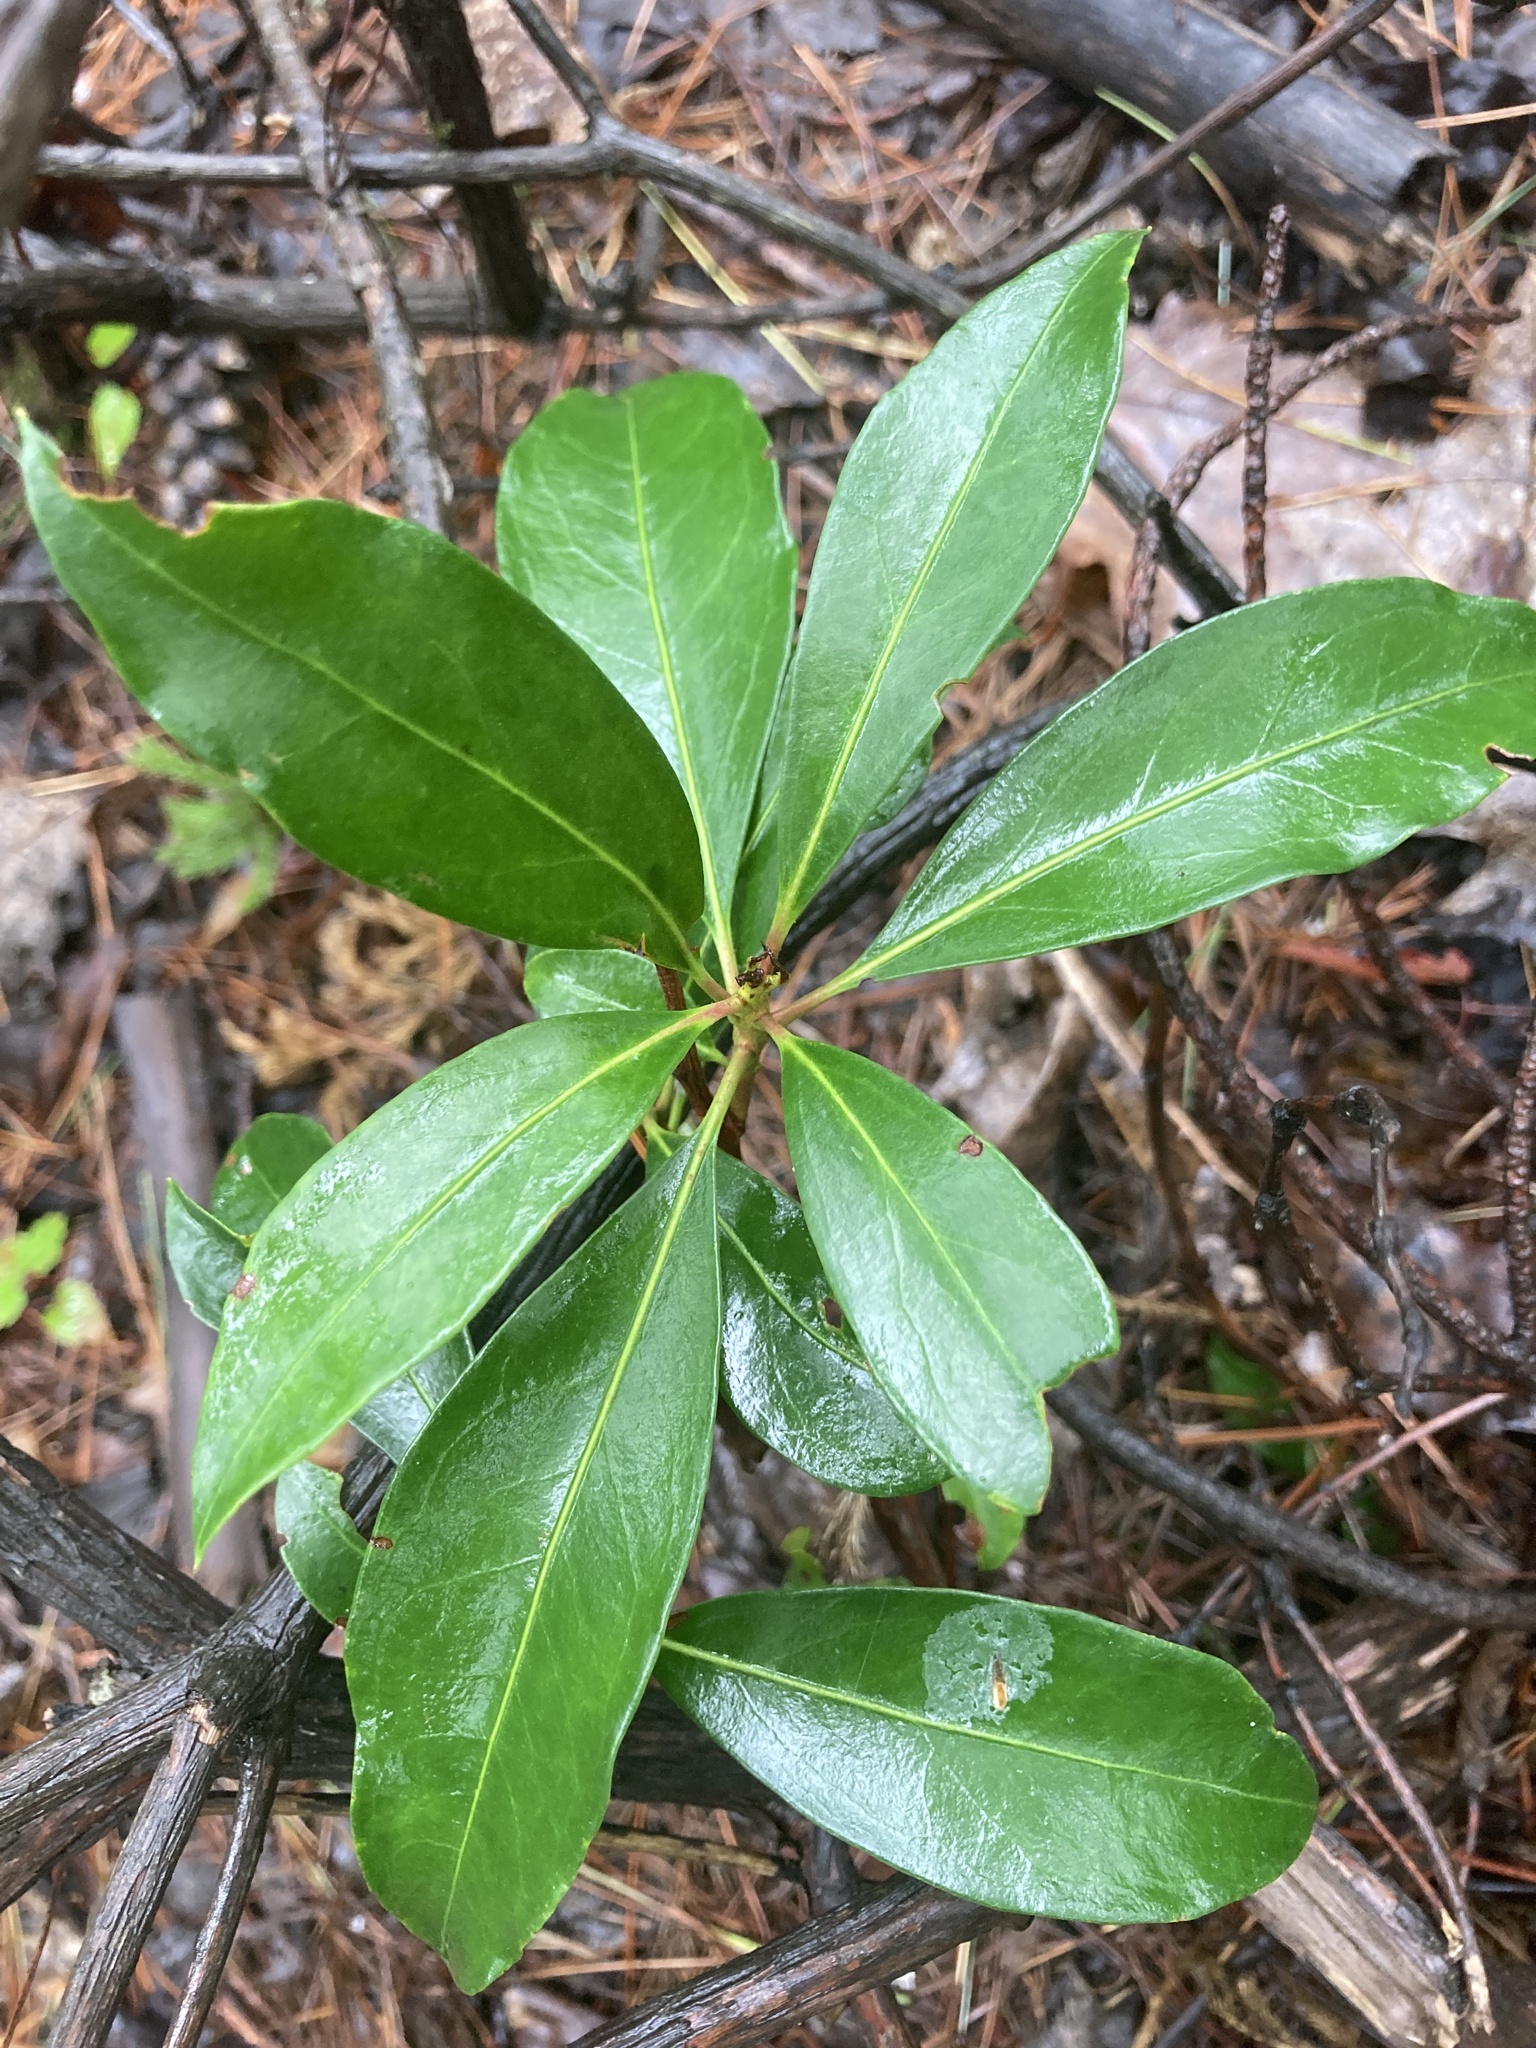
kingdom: Plantae
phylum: Tracheophyta
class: Magnoliopsida
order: Ericales
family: Ericaceae
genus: Kalmia
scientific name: Kalmia latifolia
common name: Mountain-laurel
